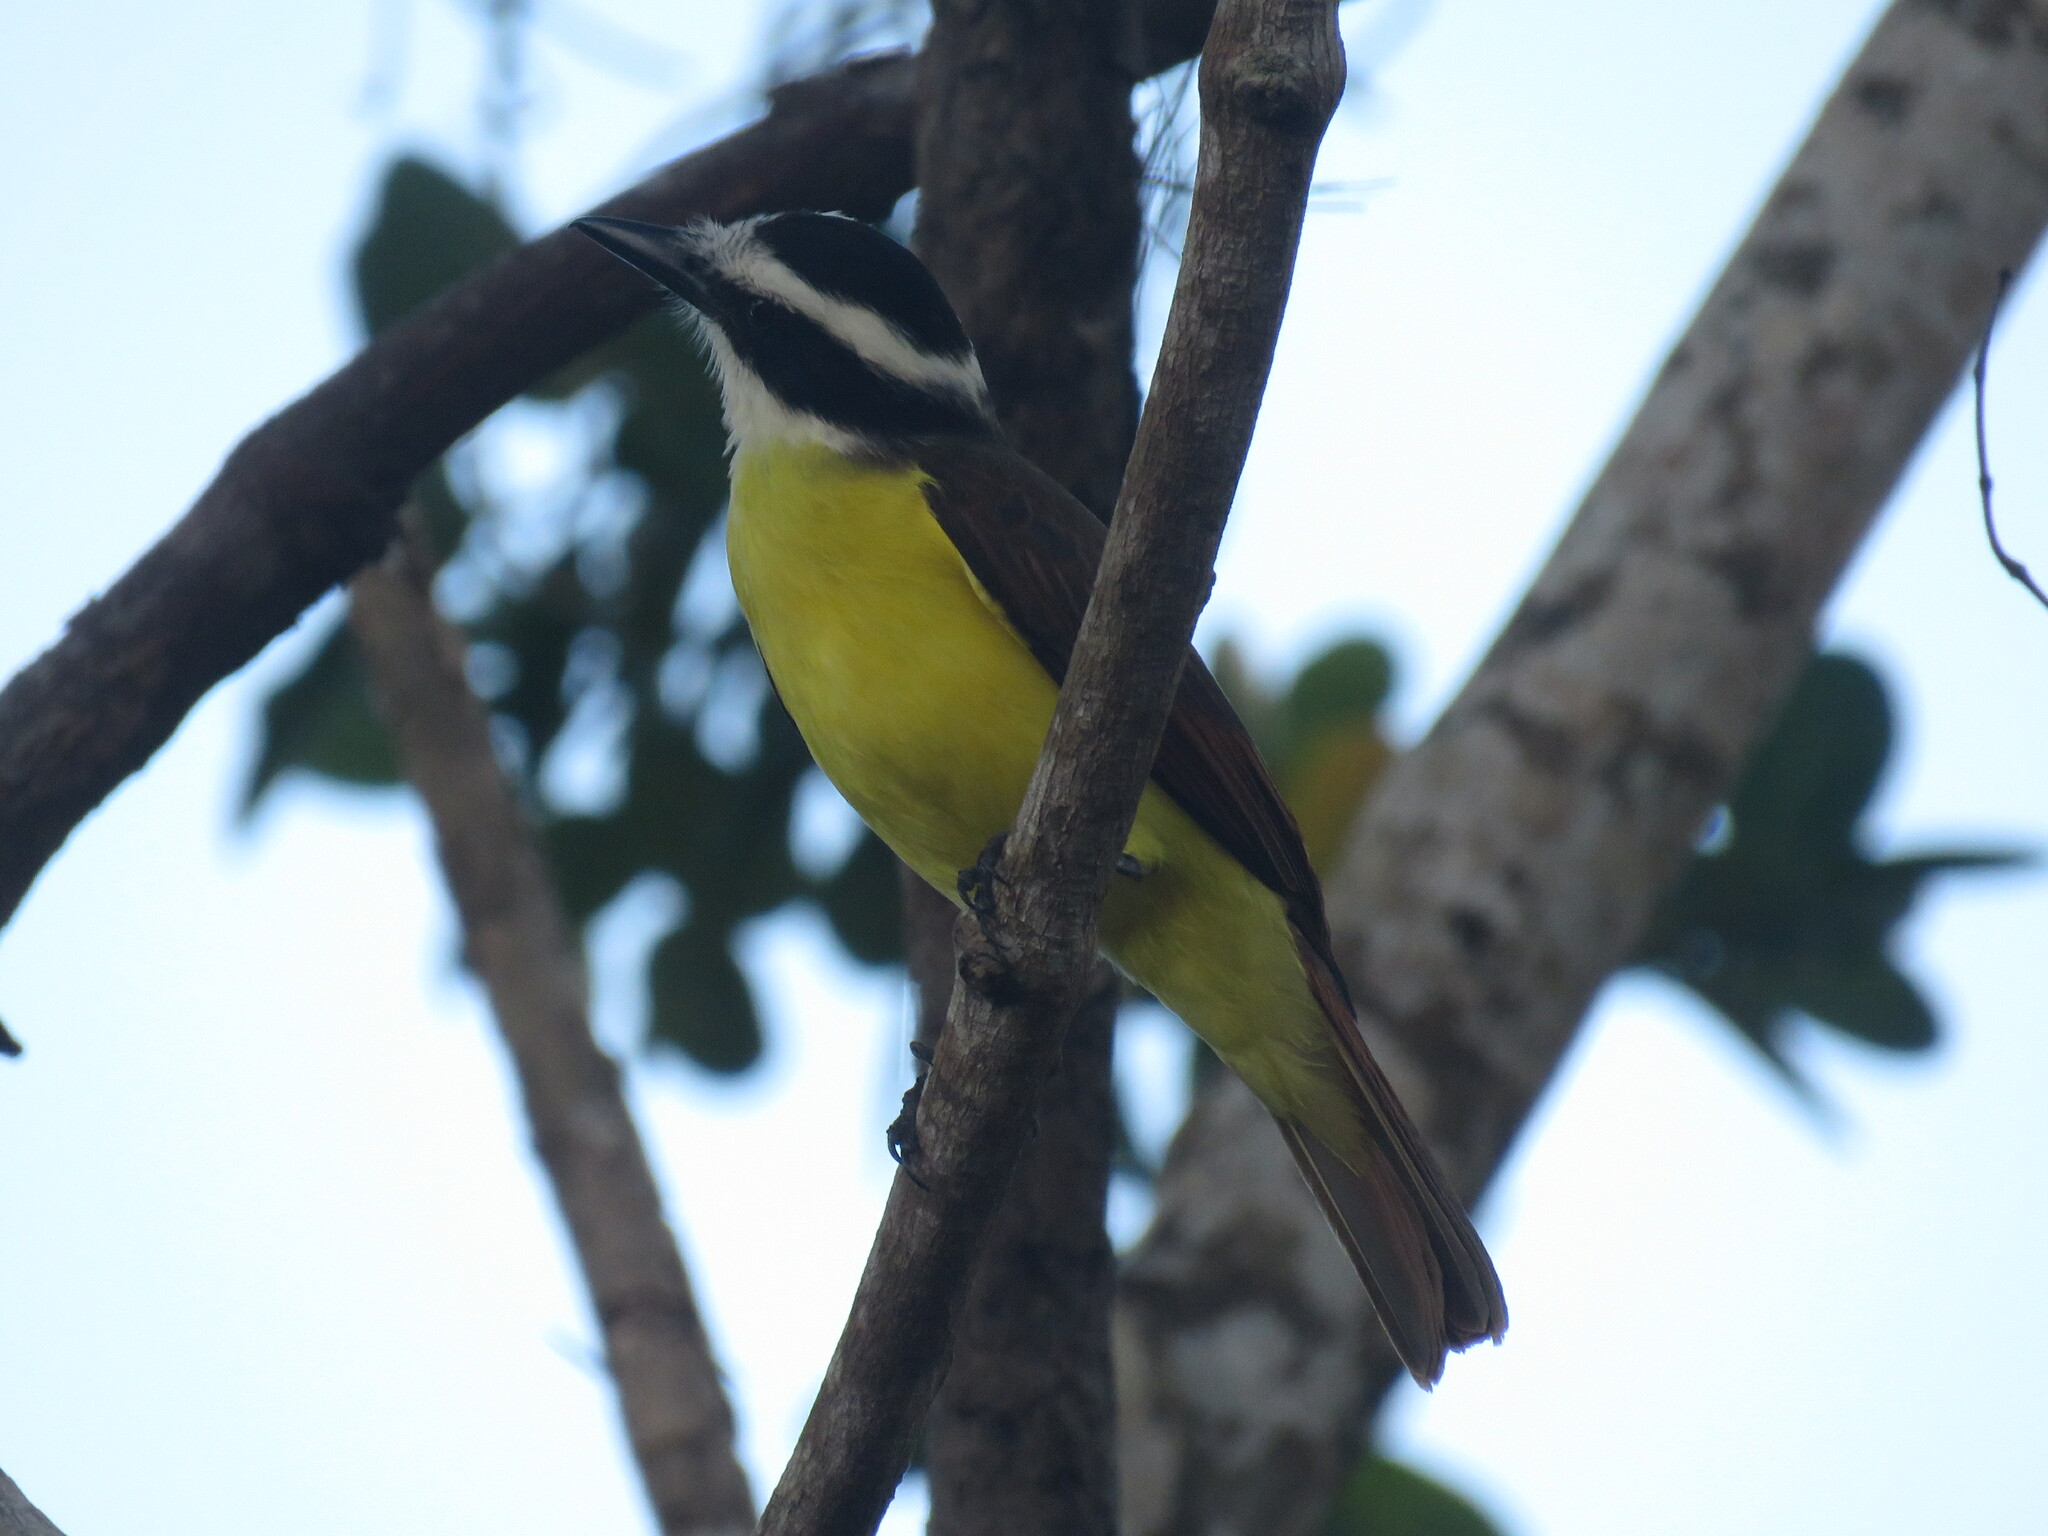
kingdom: Animalia
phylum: Chordata
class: Aves
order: Passeriformes
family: Tyrannidae
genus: Pitangus
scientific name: Pitangus sulphuratus
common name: Great kiskadee
